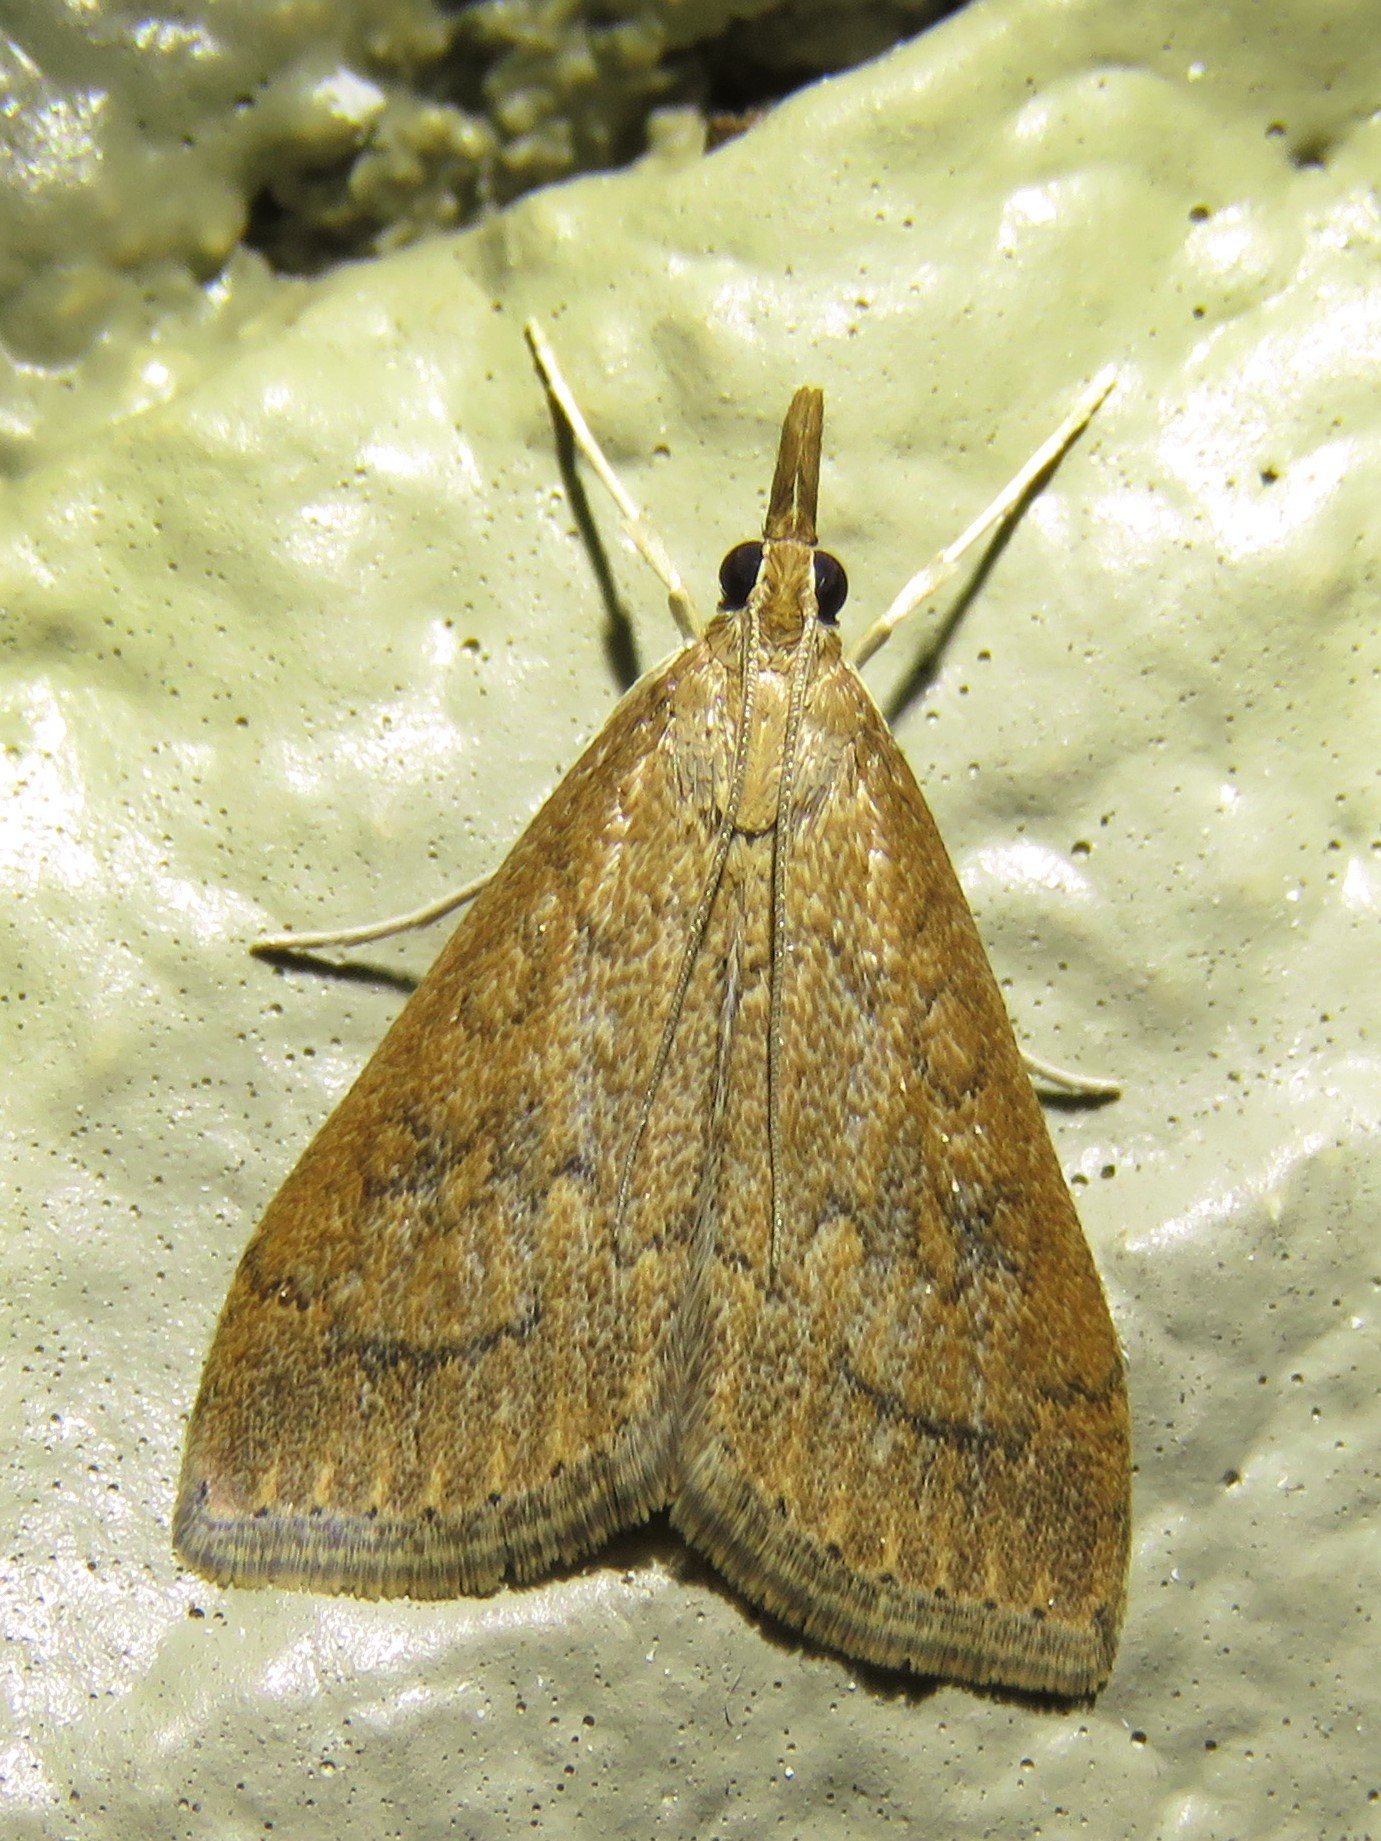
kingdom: Animalia
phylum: Arthropoda
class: Insecta
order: Lepidoptera
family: Crambidae
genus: Udea
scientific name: Udea rubigalis
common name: Celery leaftier moth
